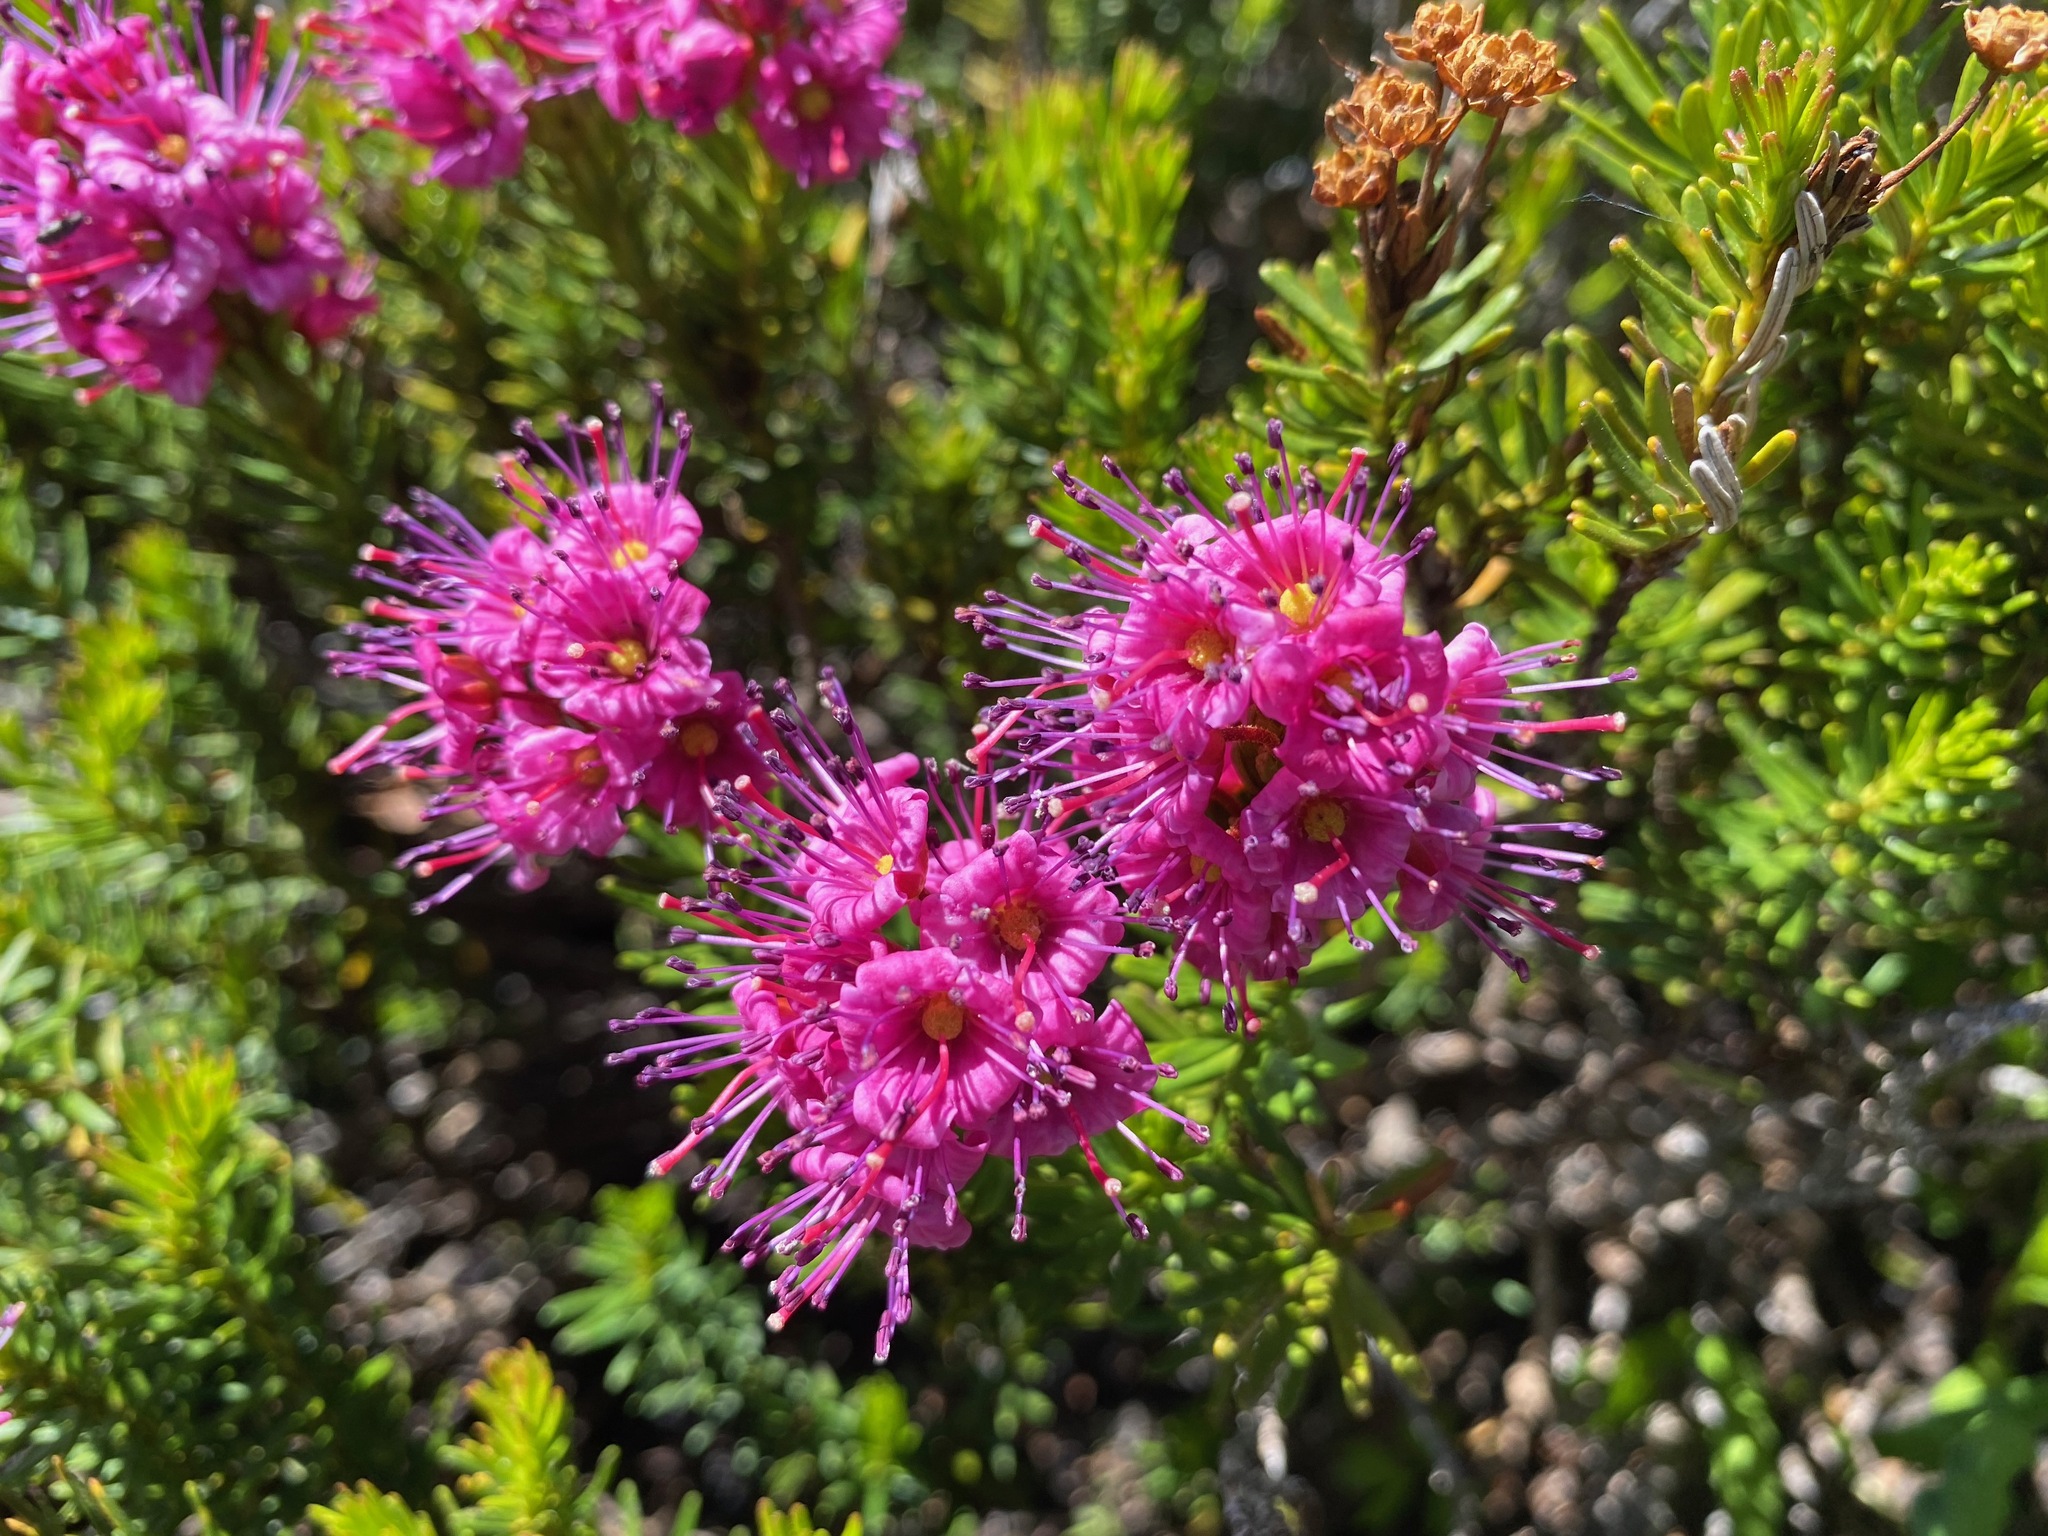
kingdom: Plantae
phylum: Tracheophyta
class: Magnoliopsida
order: Ericales
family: Ericaceae
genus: Phyllodoce
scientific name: Phyllodoce breweri
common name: Brewer's mountain-heather
